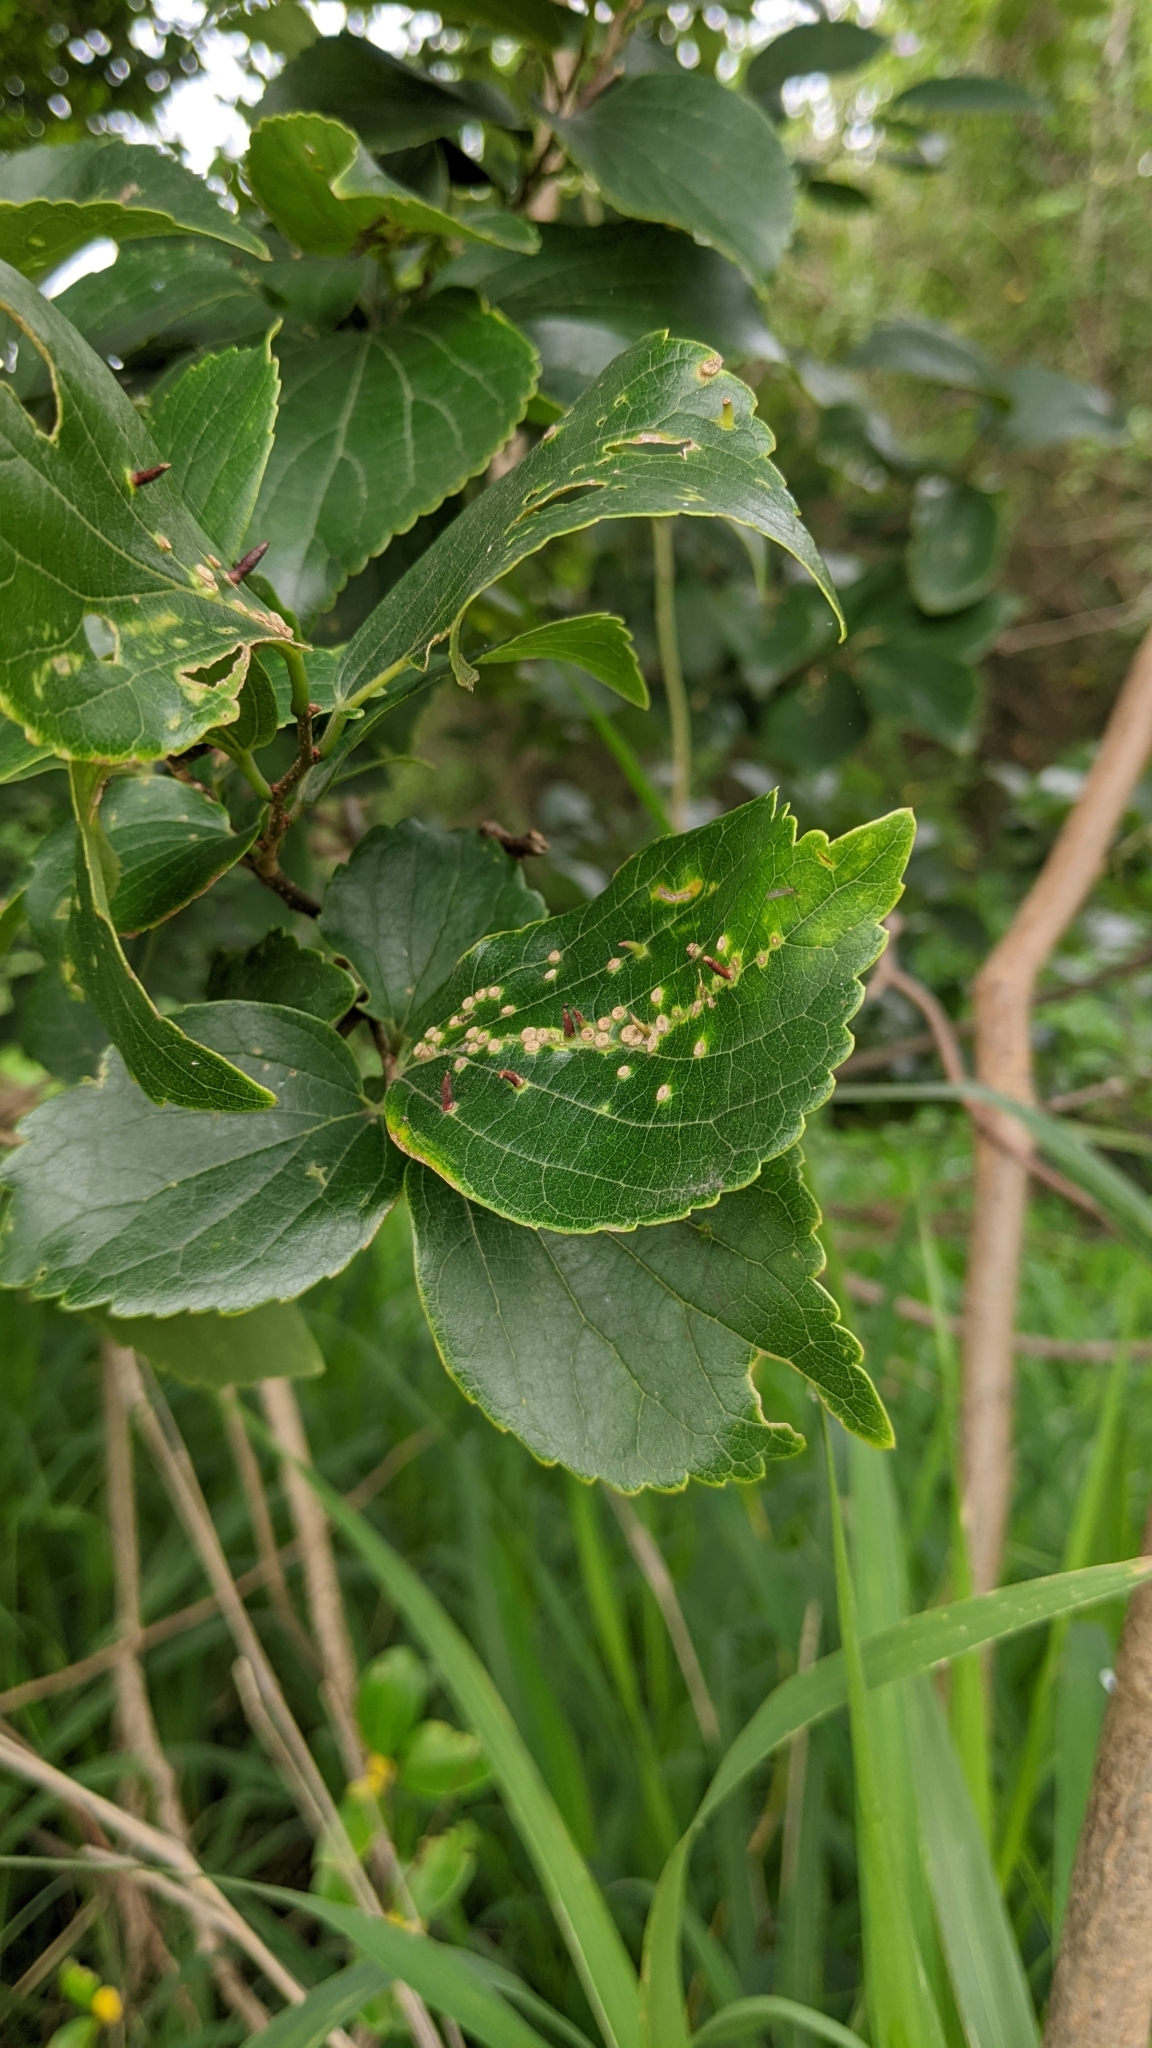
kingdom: Plantae
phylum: Tracheophyta
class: Magnoliopsida
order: Rosales
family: Cannabaceae
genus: Celtis
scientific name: Celtis sinensis
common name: Chinese hackberry
